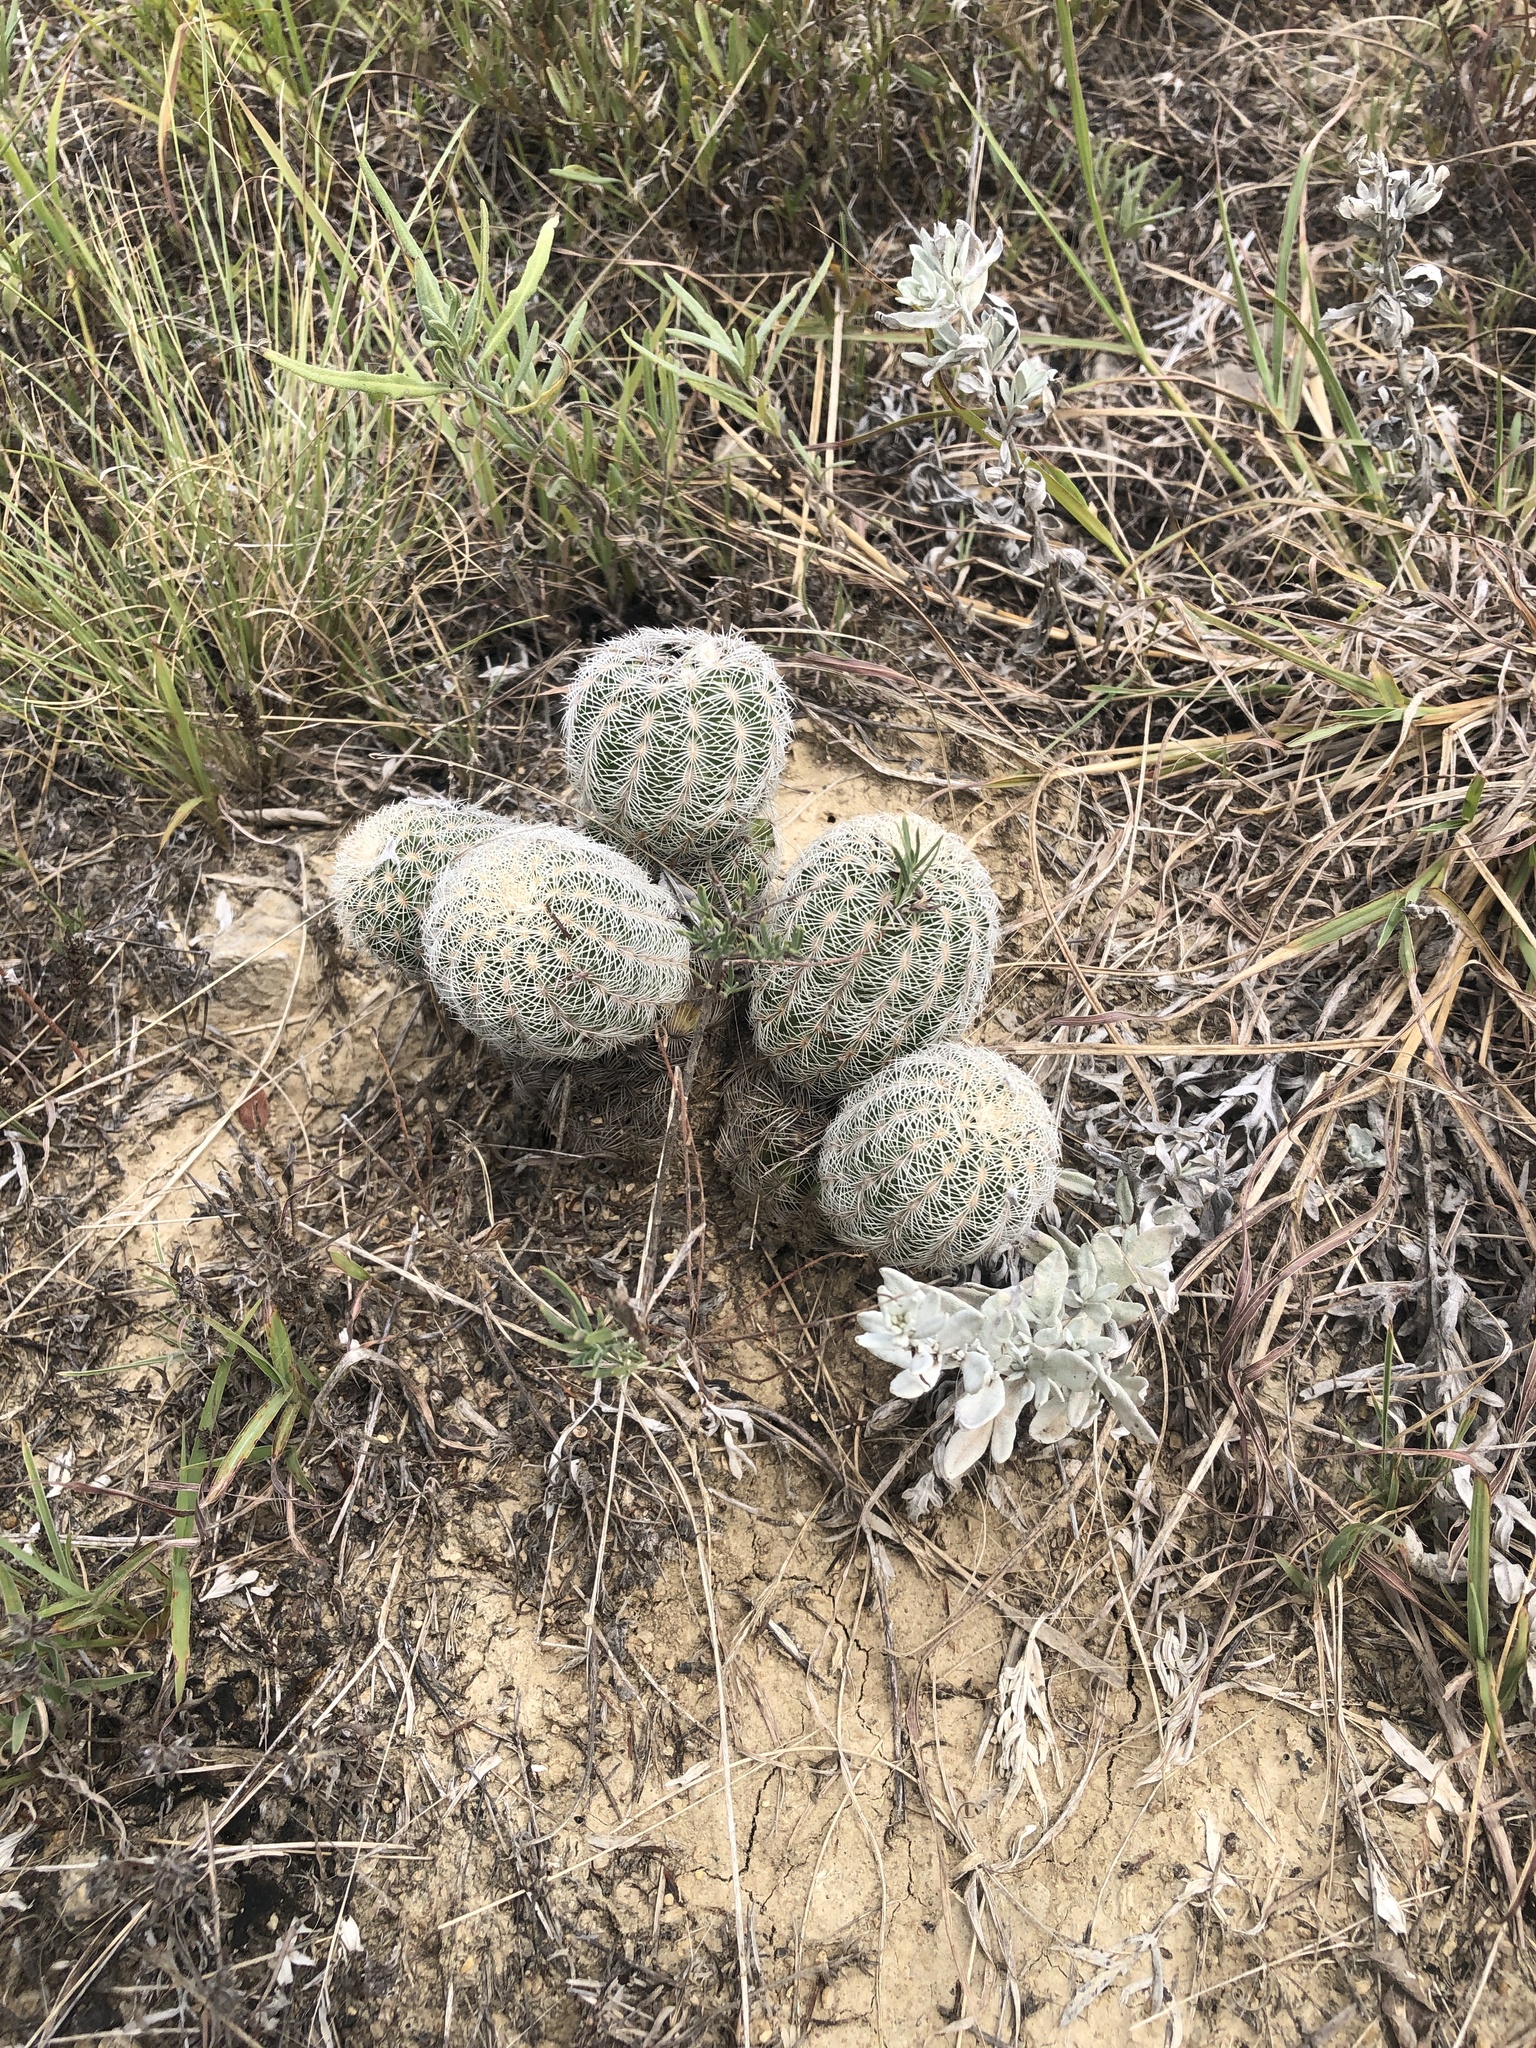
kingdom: Plantae
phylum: Tracheophyta
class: Magnoliopsida
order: Caryophyllales
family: Cactaceae
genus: Echinocereus
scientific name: Echinocereus reichenbachii
